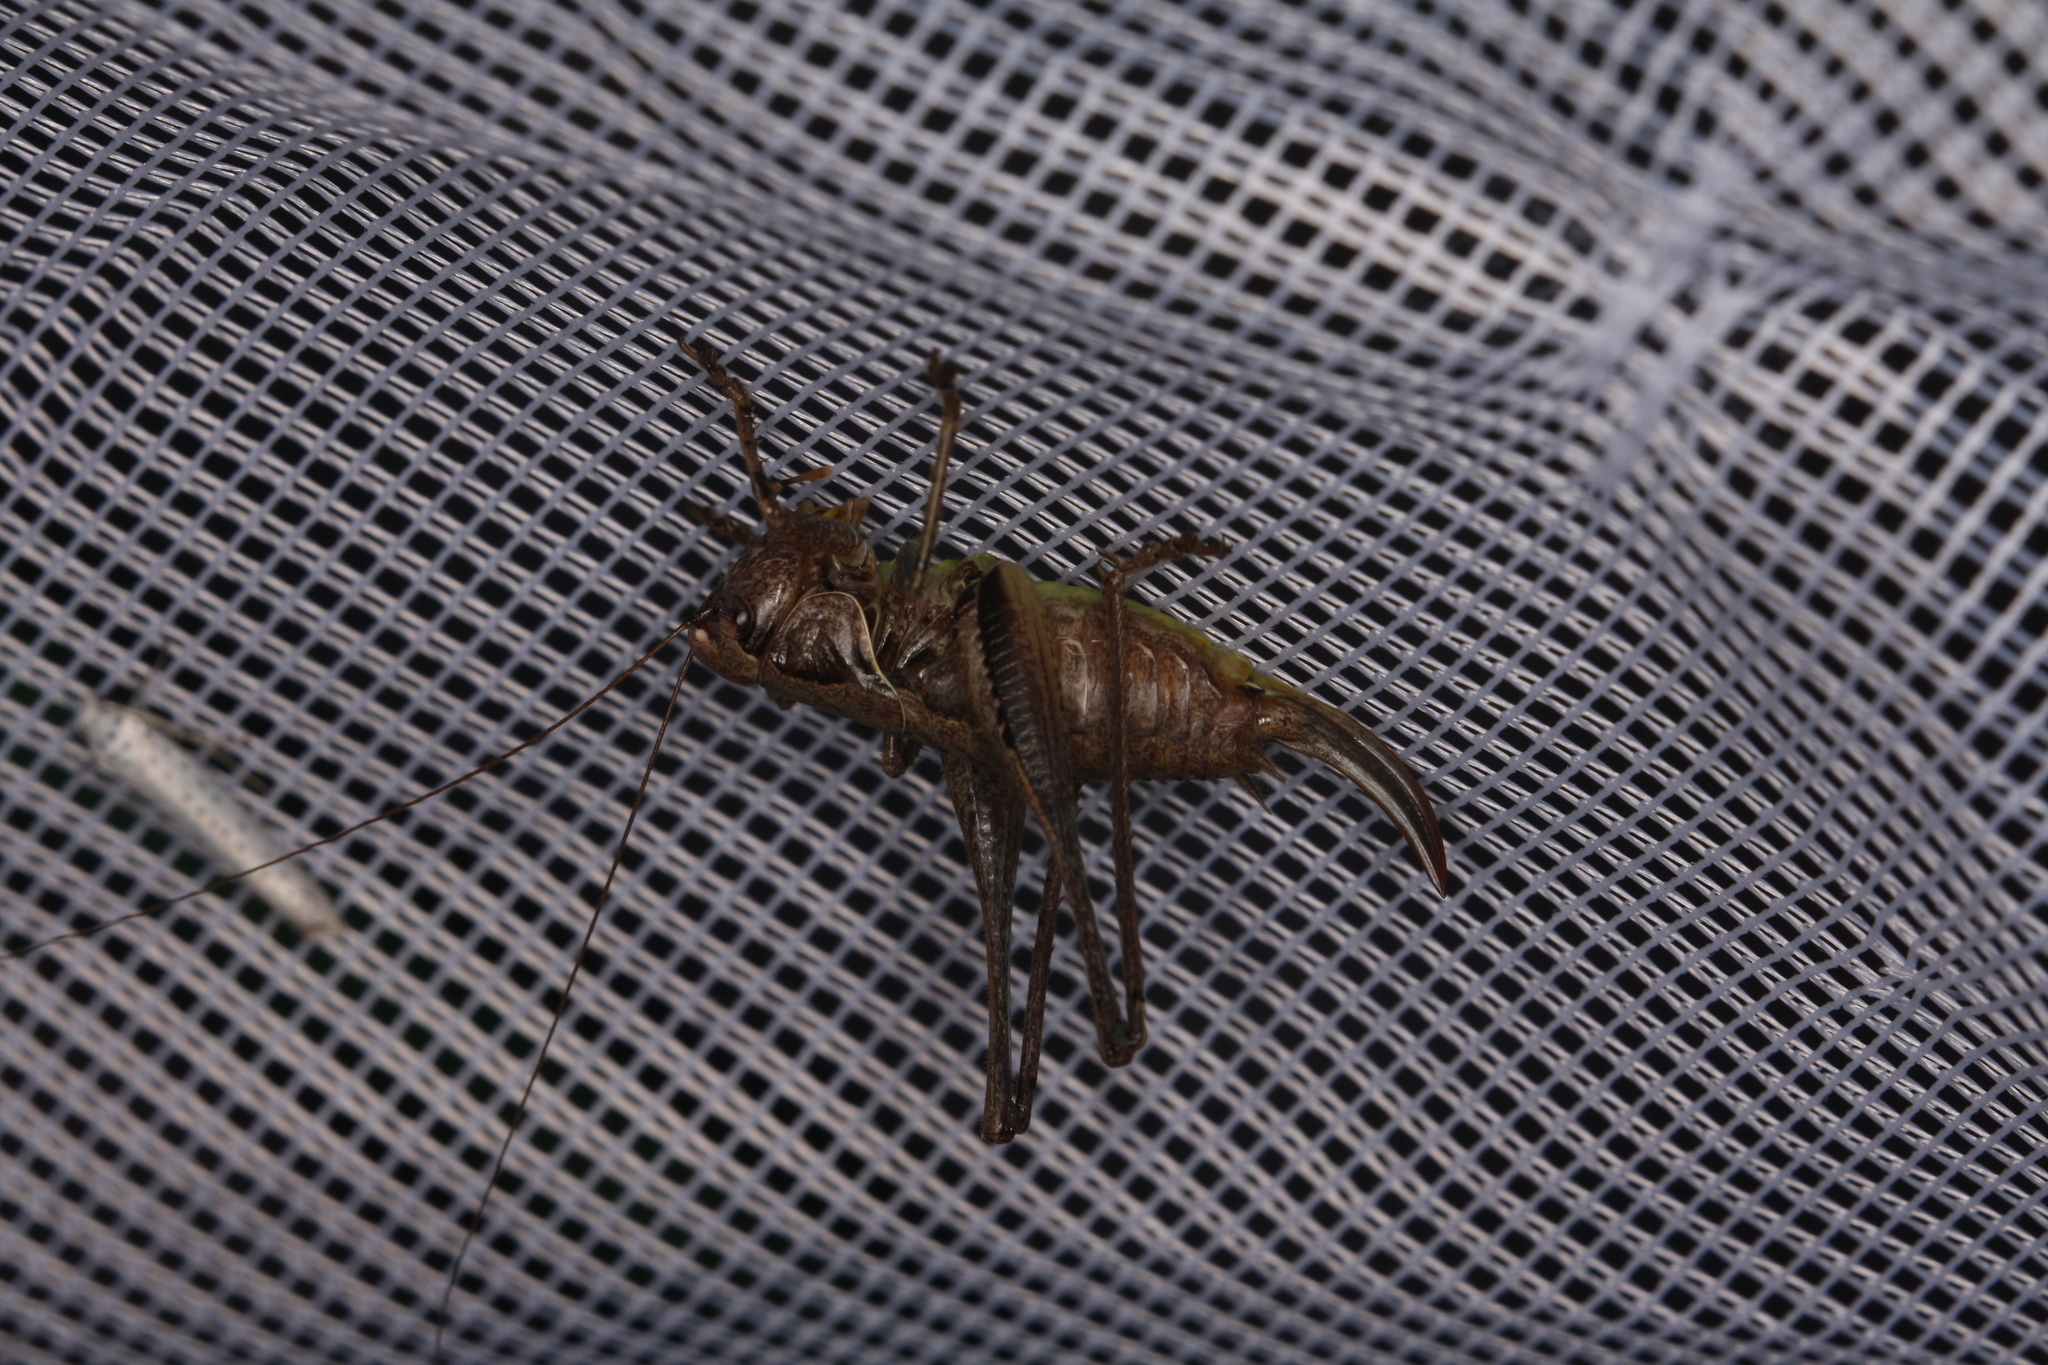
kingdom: Animalia
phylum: Arthropoda
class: Insecta
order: Orthoptera
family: Tettigoniidae
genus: Pholidoptera
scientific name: Pholidoptera griseoaptera
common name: Dark bush-cricket
